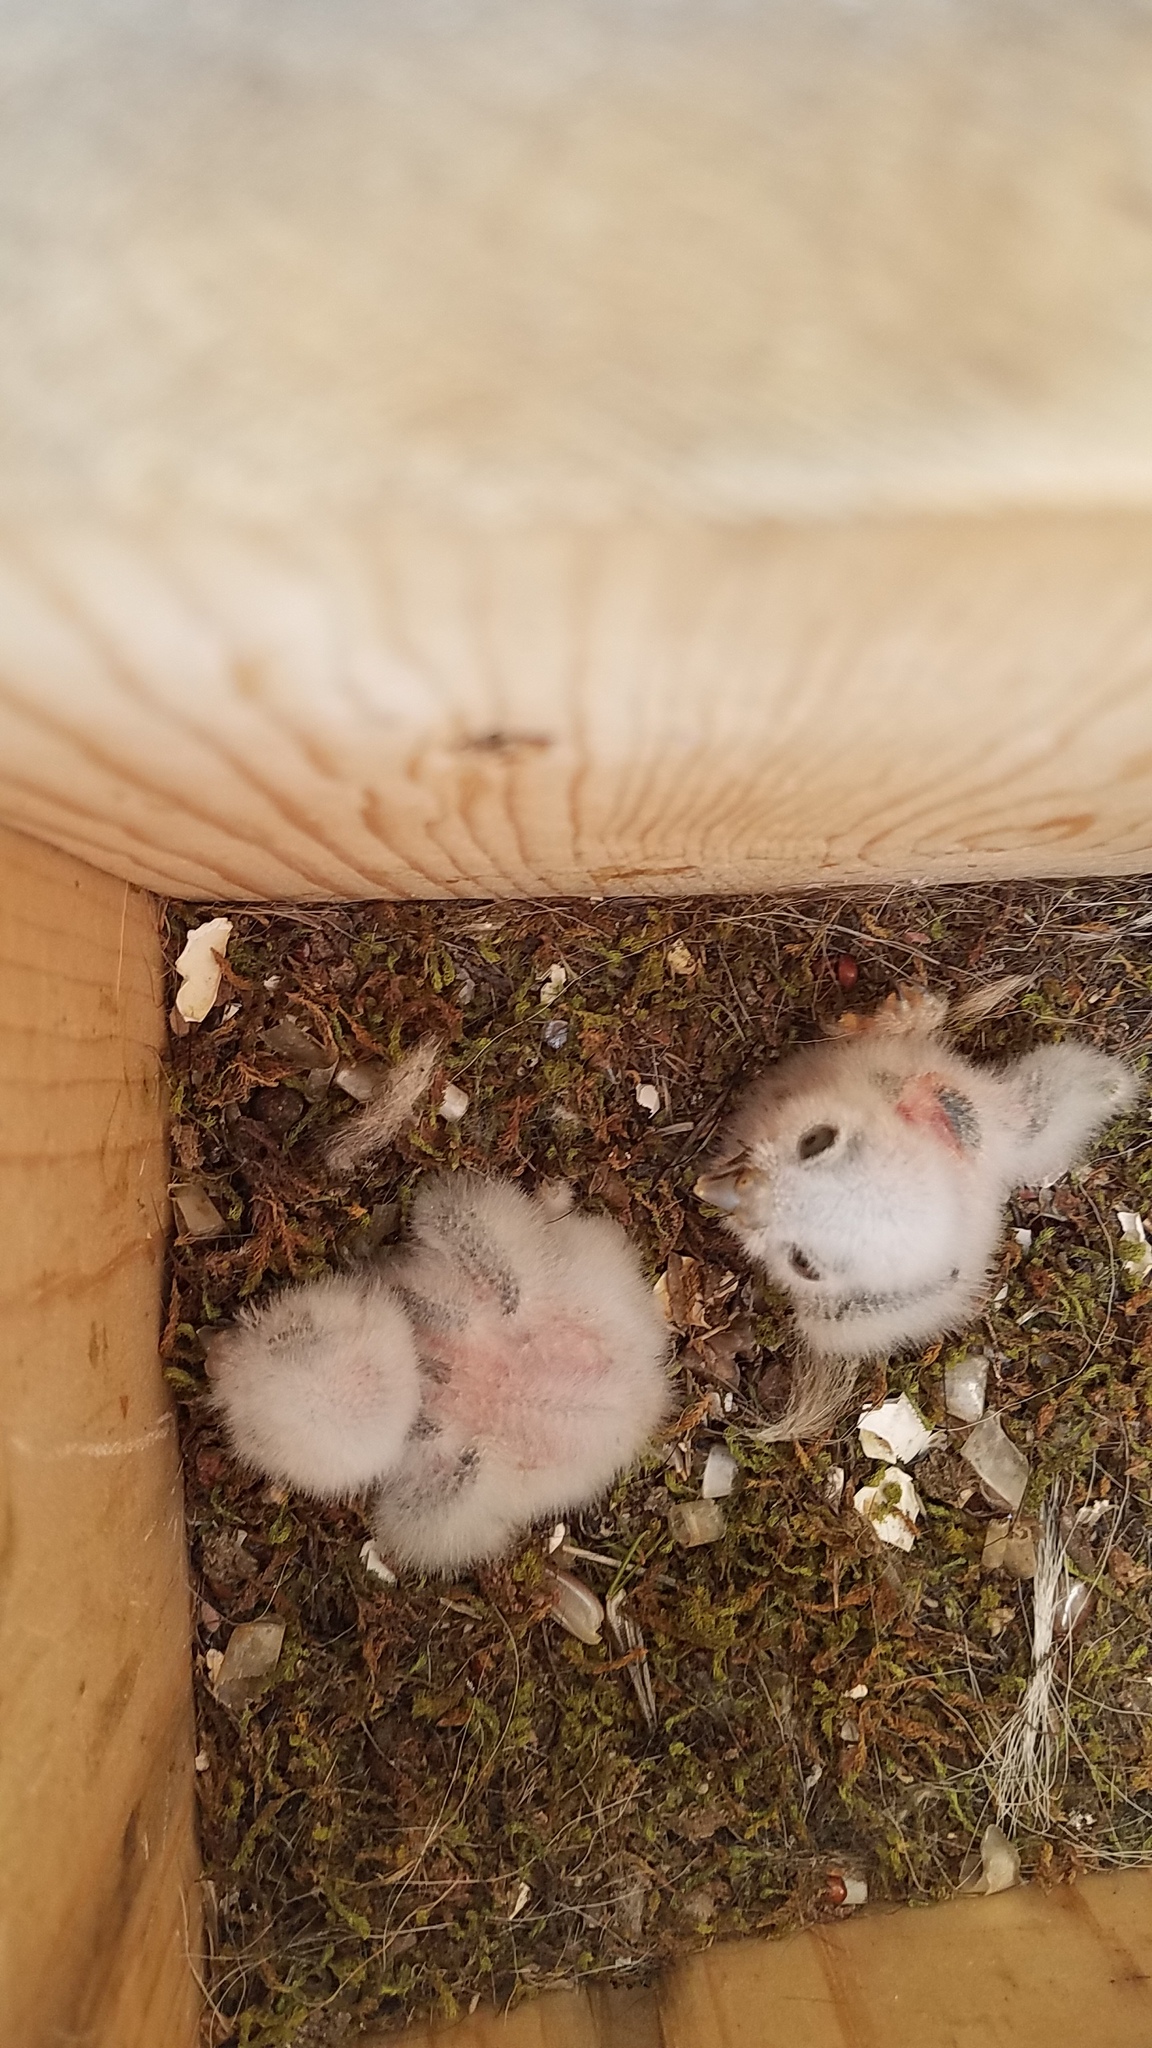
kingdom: Animalia
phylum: Chordata
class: Aves
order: Strigiformes
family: Strigidae
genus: Micrathene
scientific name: Micrathene whitneyi
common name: Elf owl
